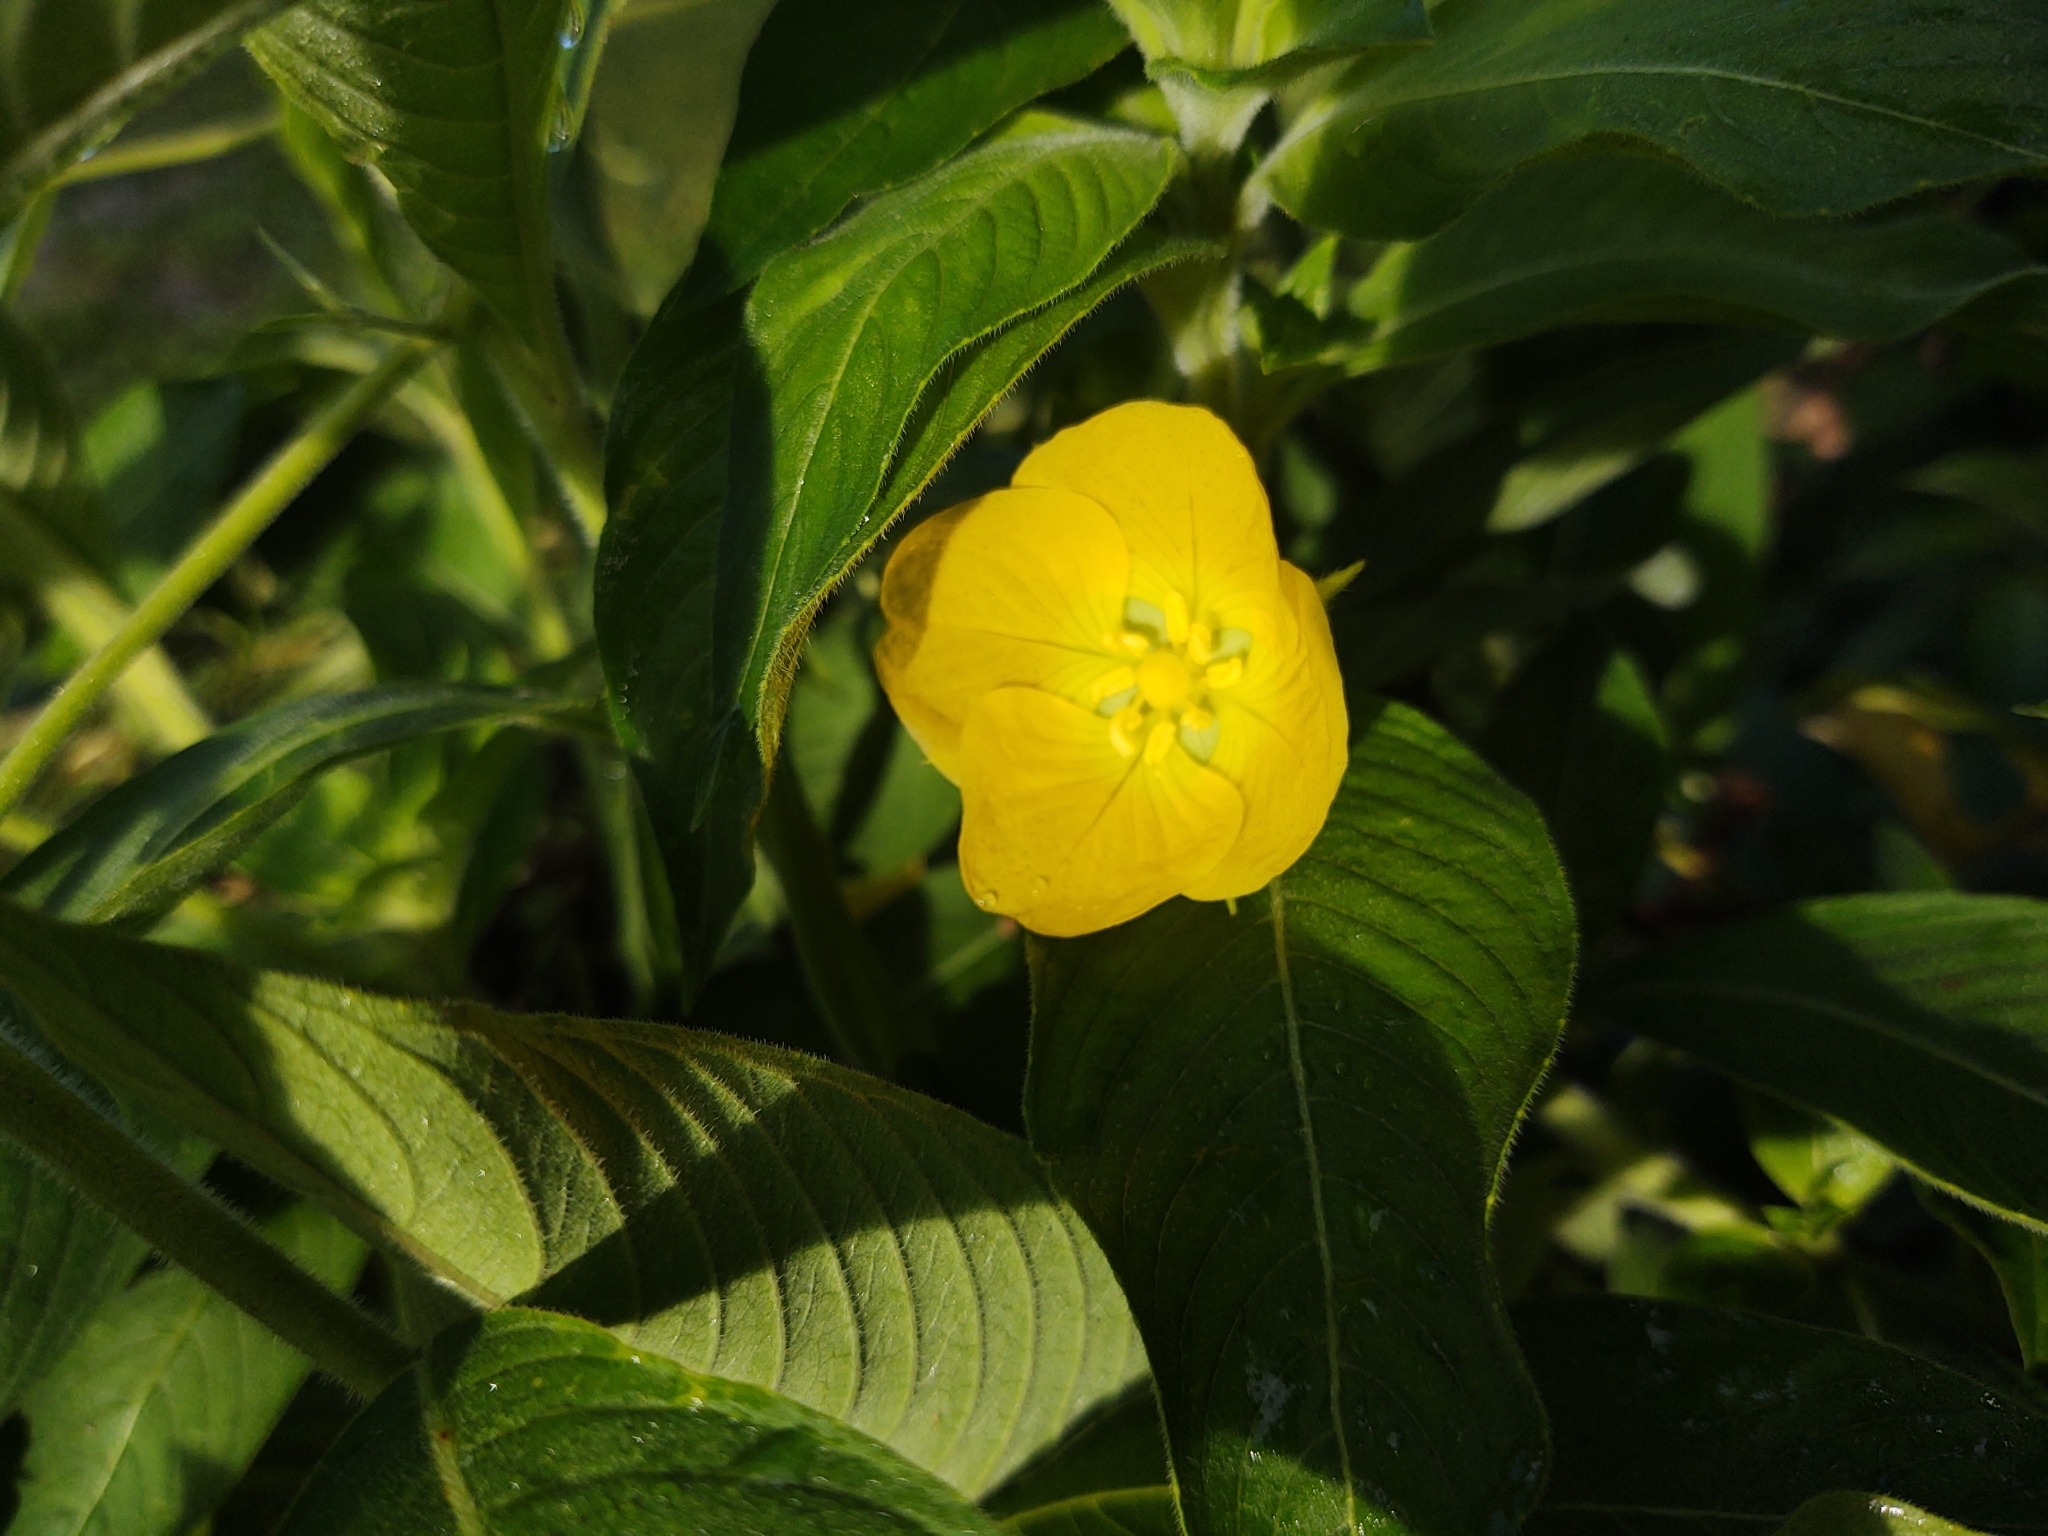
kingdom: Plantae
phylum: Tracheophyta
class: Magnoliopsida
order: Myrtales
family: Onagraceae
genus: Ludwigia
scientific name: Ludwigia peruviana
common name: Peruvian primrose-willow
